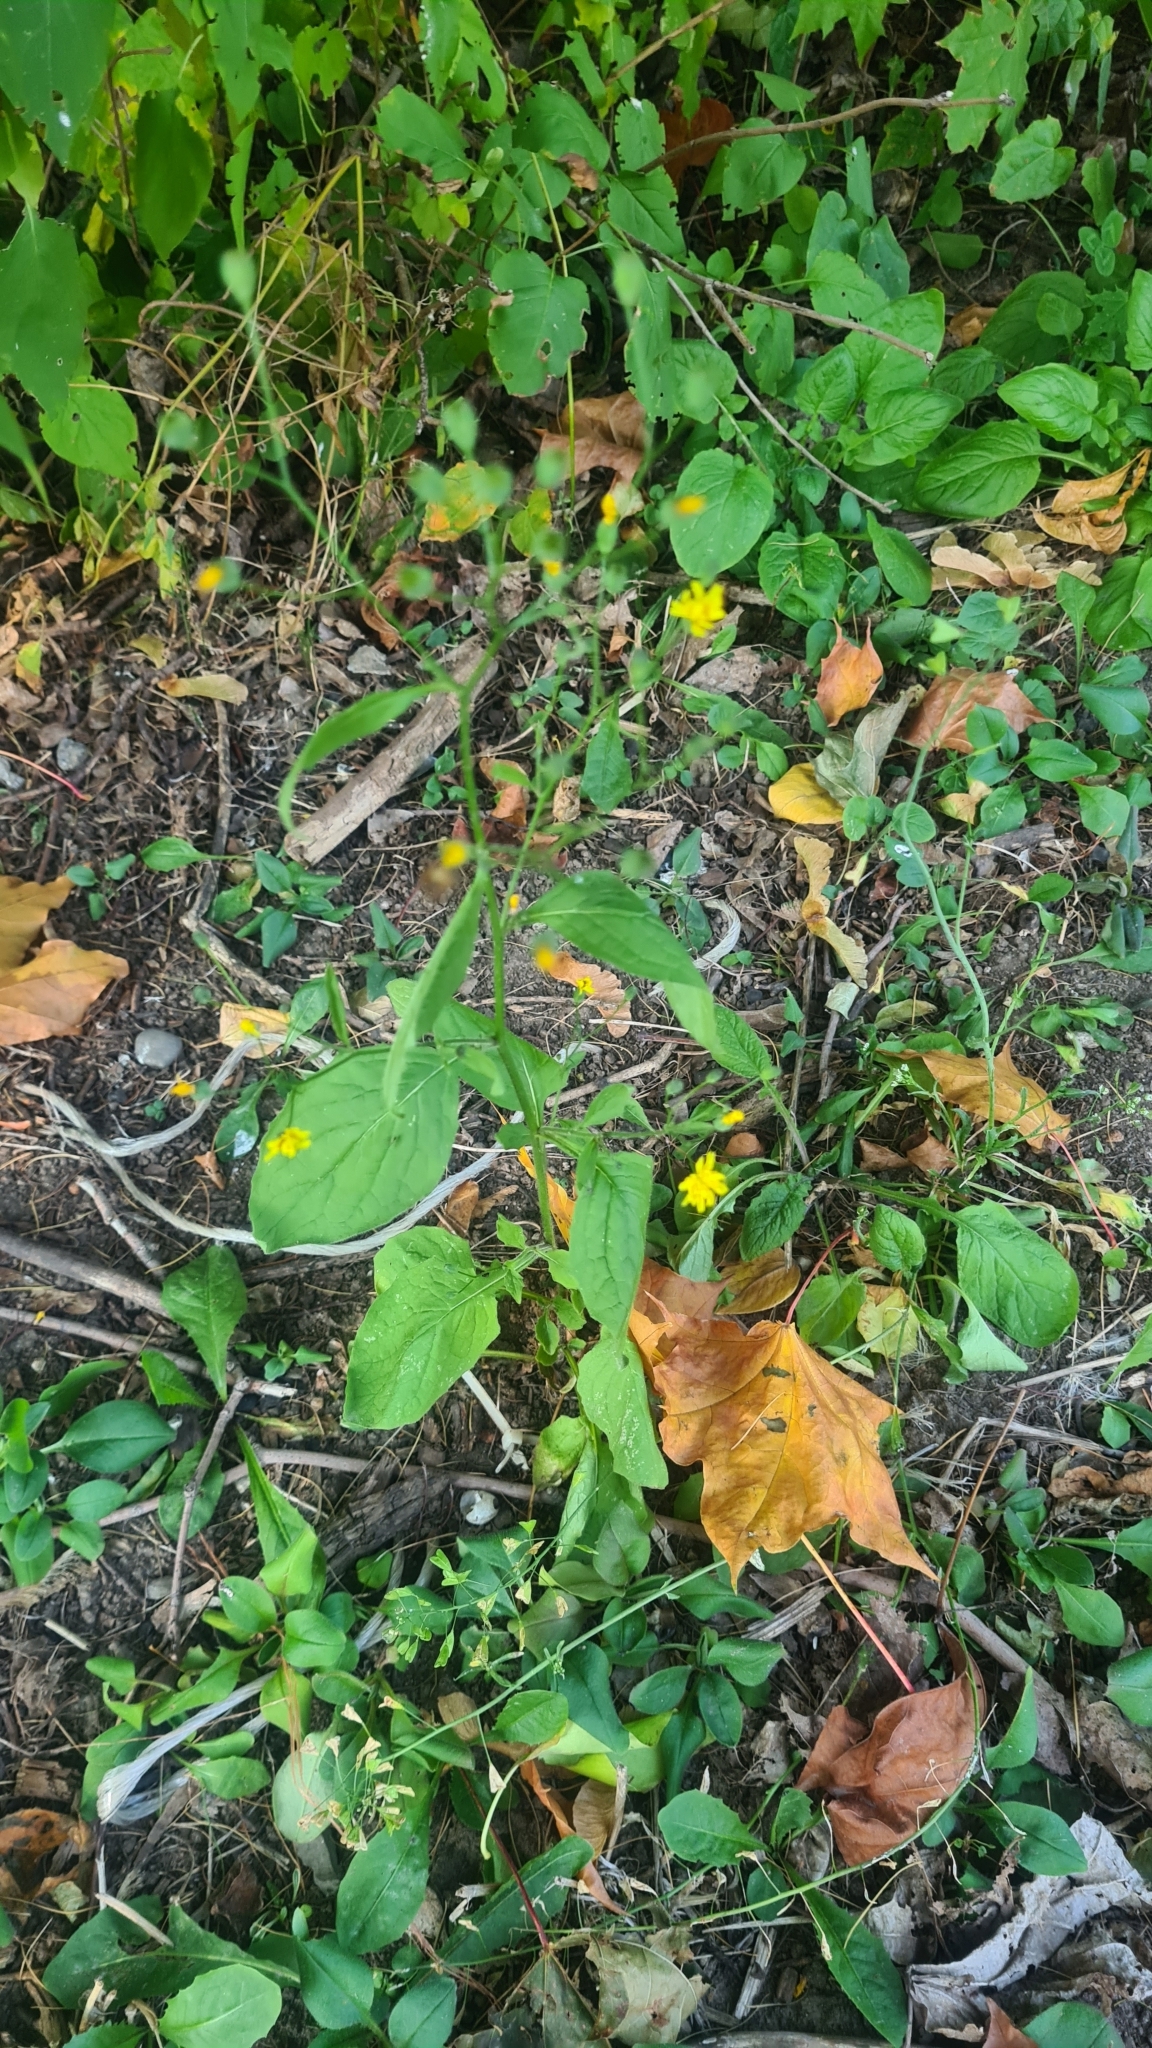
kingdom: Plantae
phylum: Tracheophyta
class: Magnoliopsida
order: Asterales
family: Asteraceae
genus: Lapsana
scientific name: Lapsana communis
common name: Nipplewort
